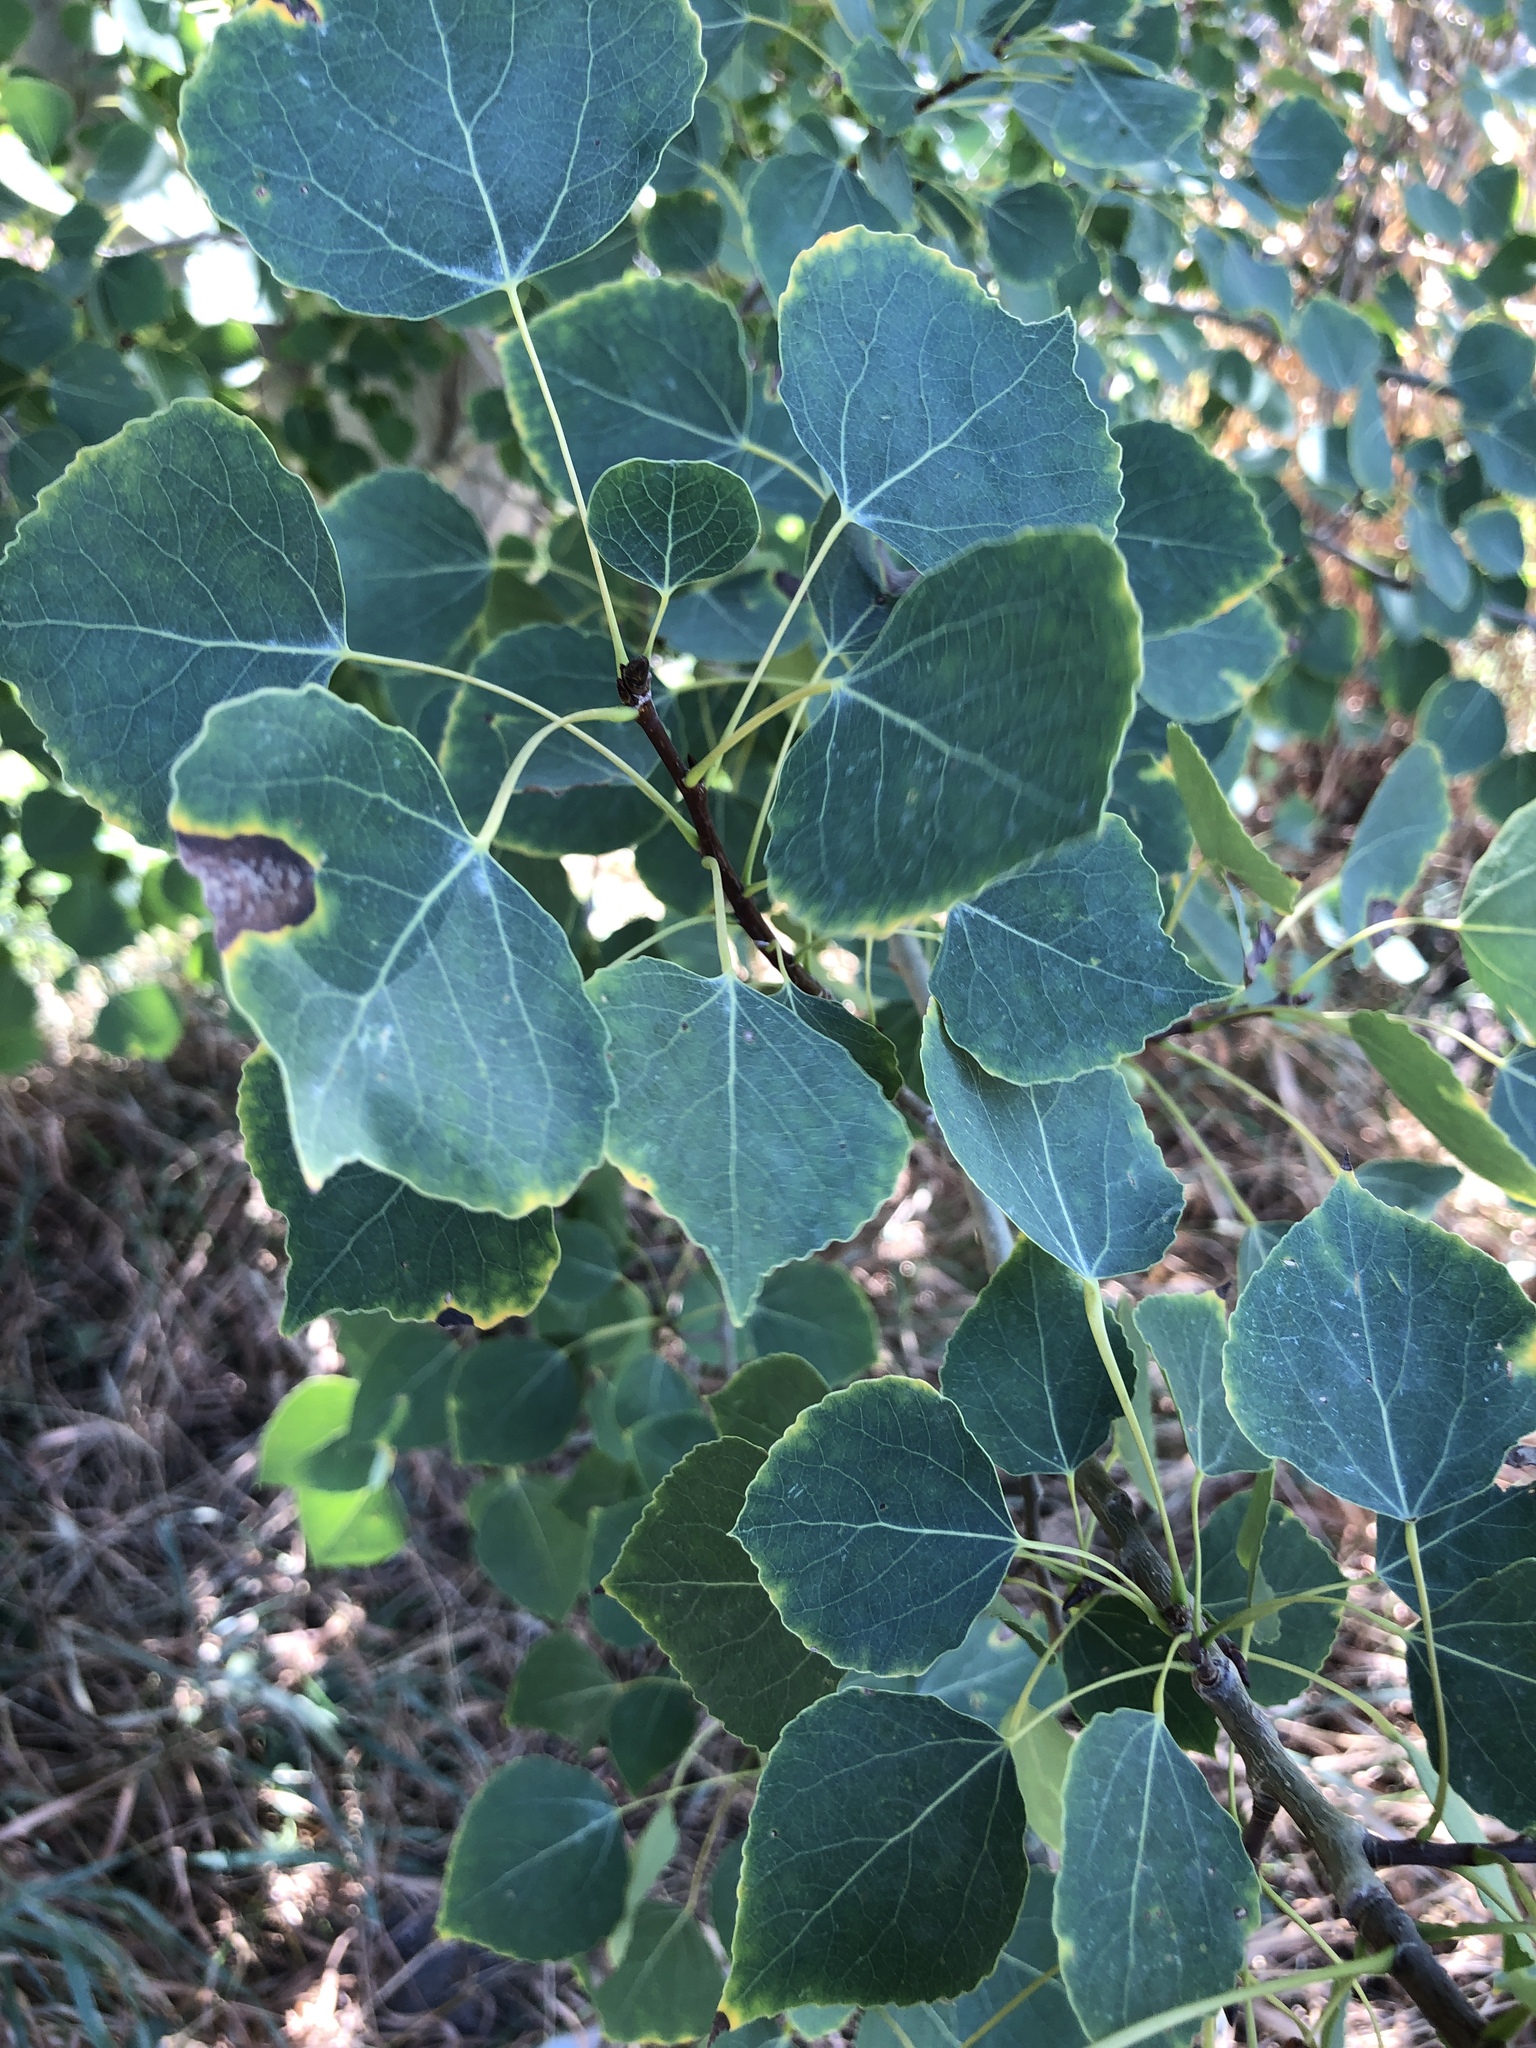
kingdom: Plantae
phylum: Tracheophyta
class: Magnoliopsida
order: Malpighiales
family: Salicaceae
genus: Populus
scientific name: Populus tremuloides
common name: Quaking aspen
